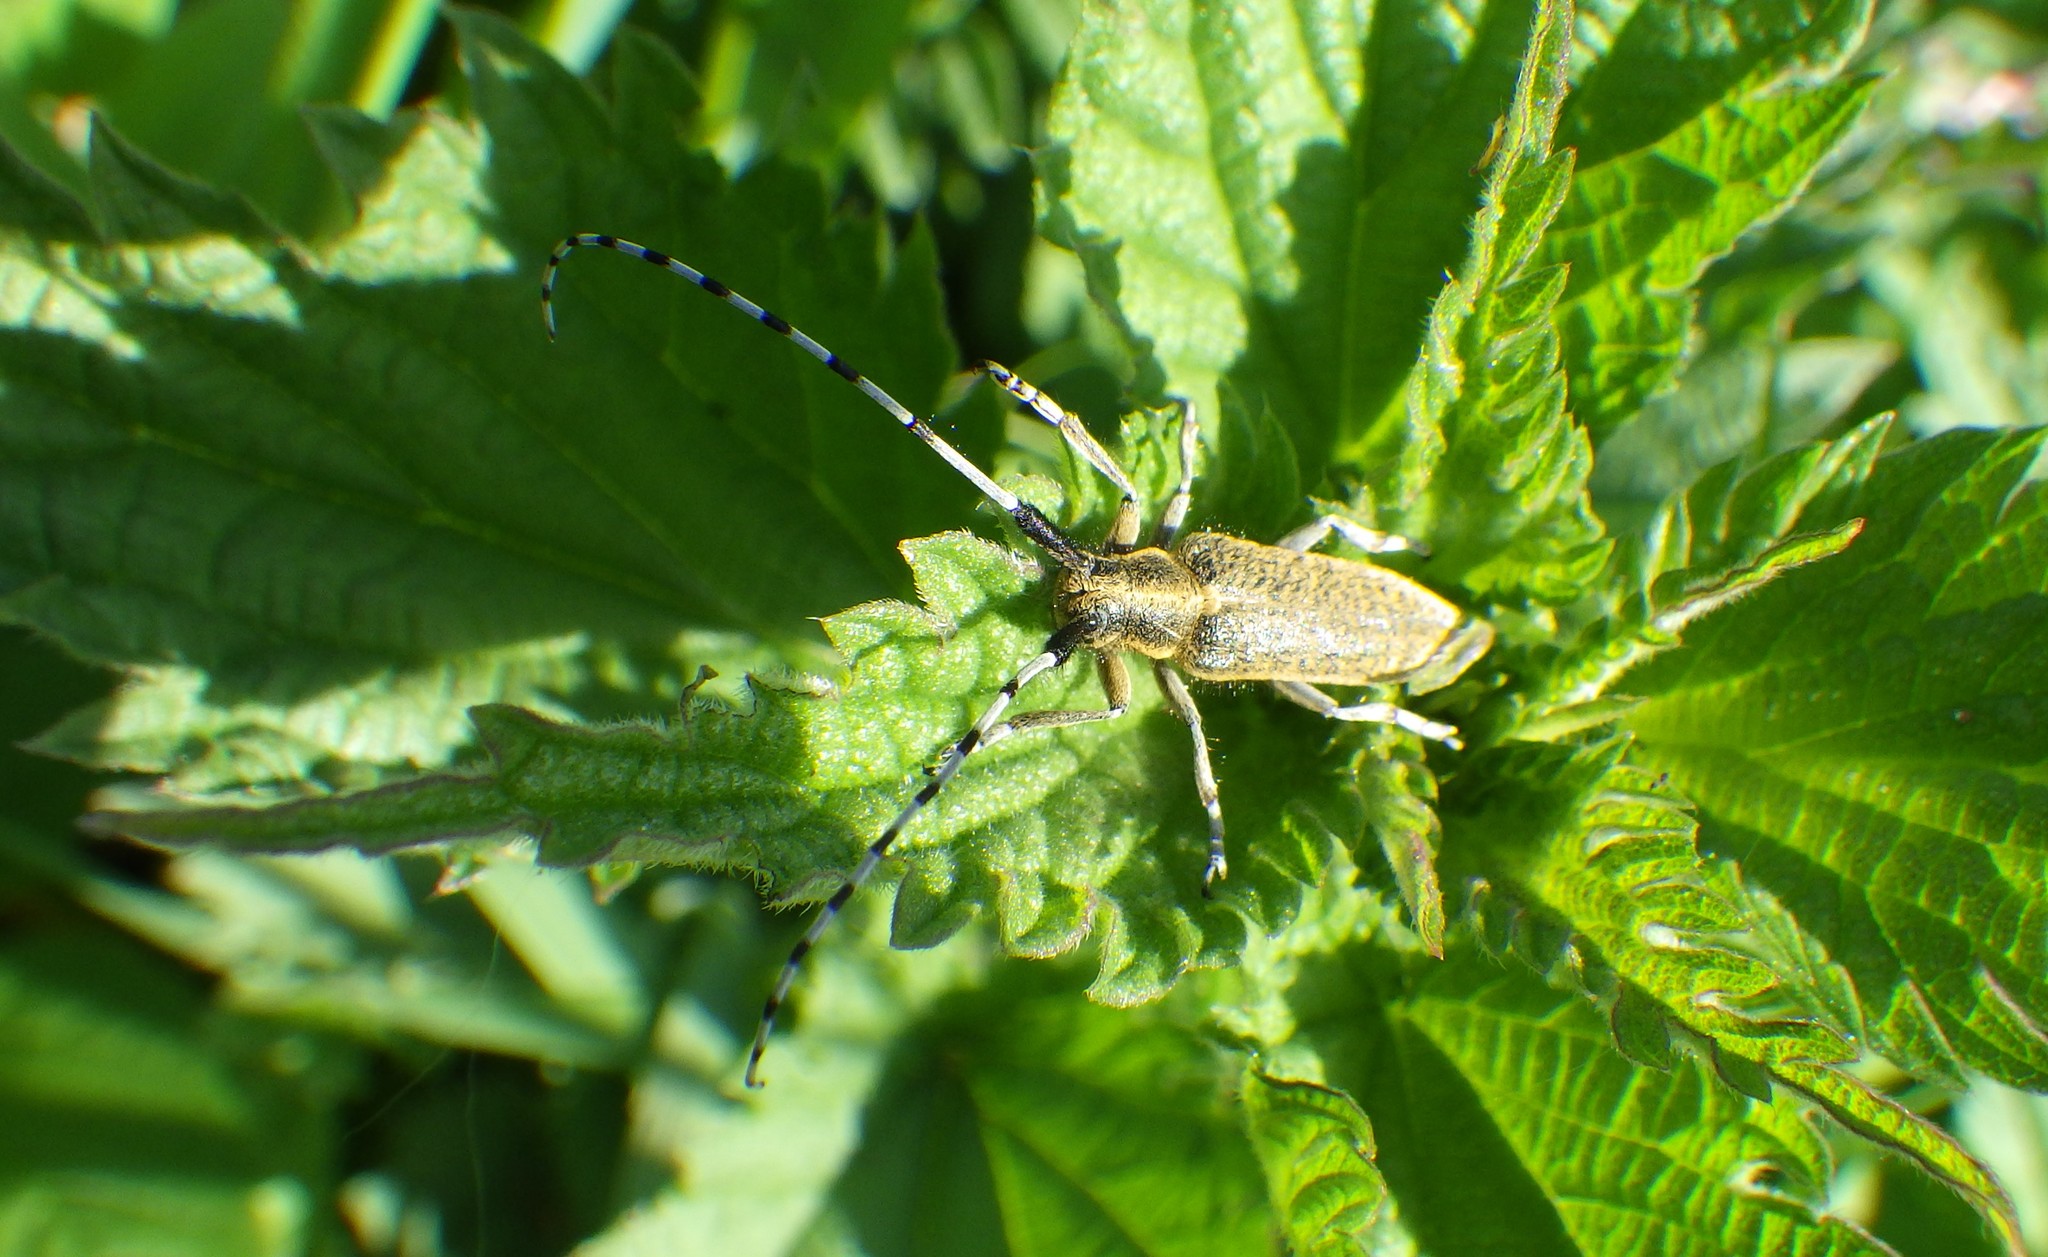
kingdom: Animalia
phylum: Arthropoda
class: Insecta
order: Coleoptera
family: Cerambycidae
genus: Agapanthia
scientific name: Agapanthia villosoviridescens
